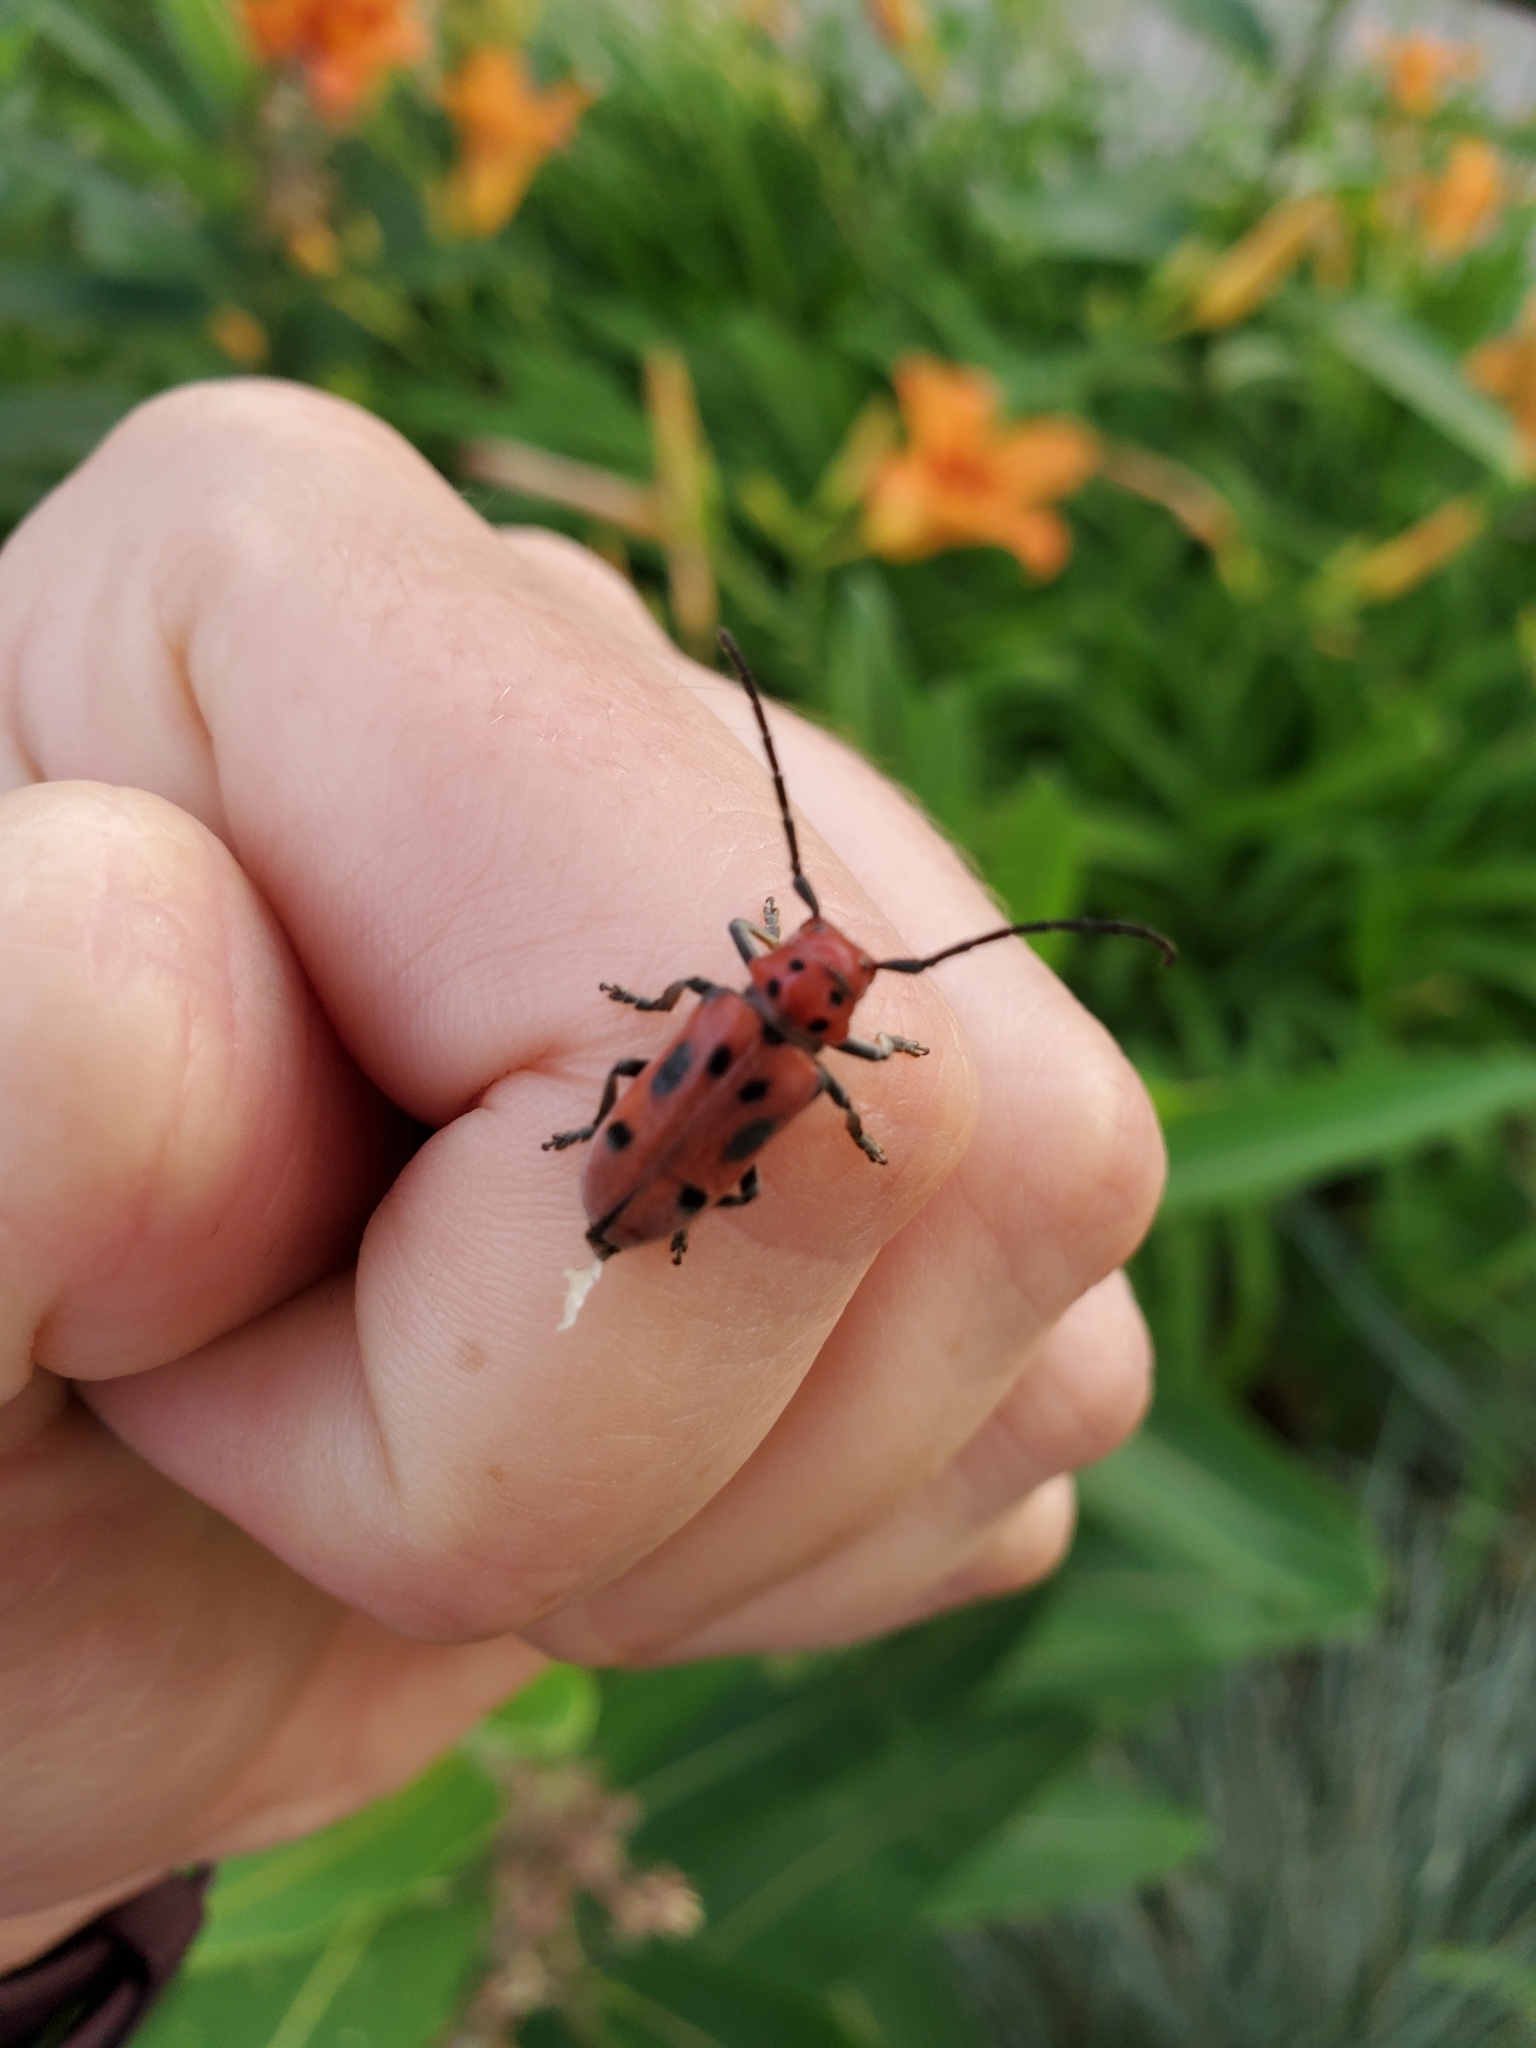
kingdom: Animalia
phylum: Arthropoda
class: Insecta
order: Coleoptera
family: Cerambycidae
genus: Tetraopes
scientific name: Tetraopes tetrophthalmus
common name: Red milkweed beetle
